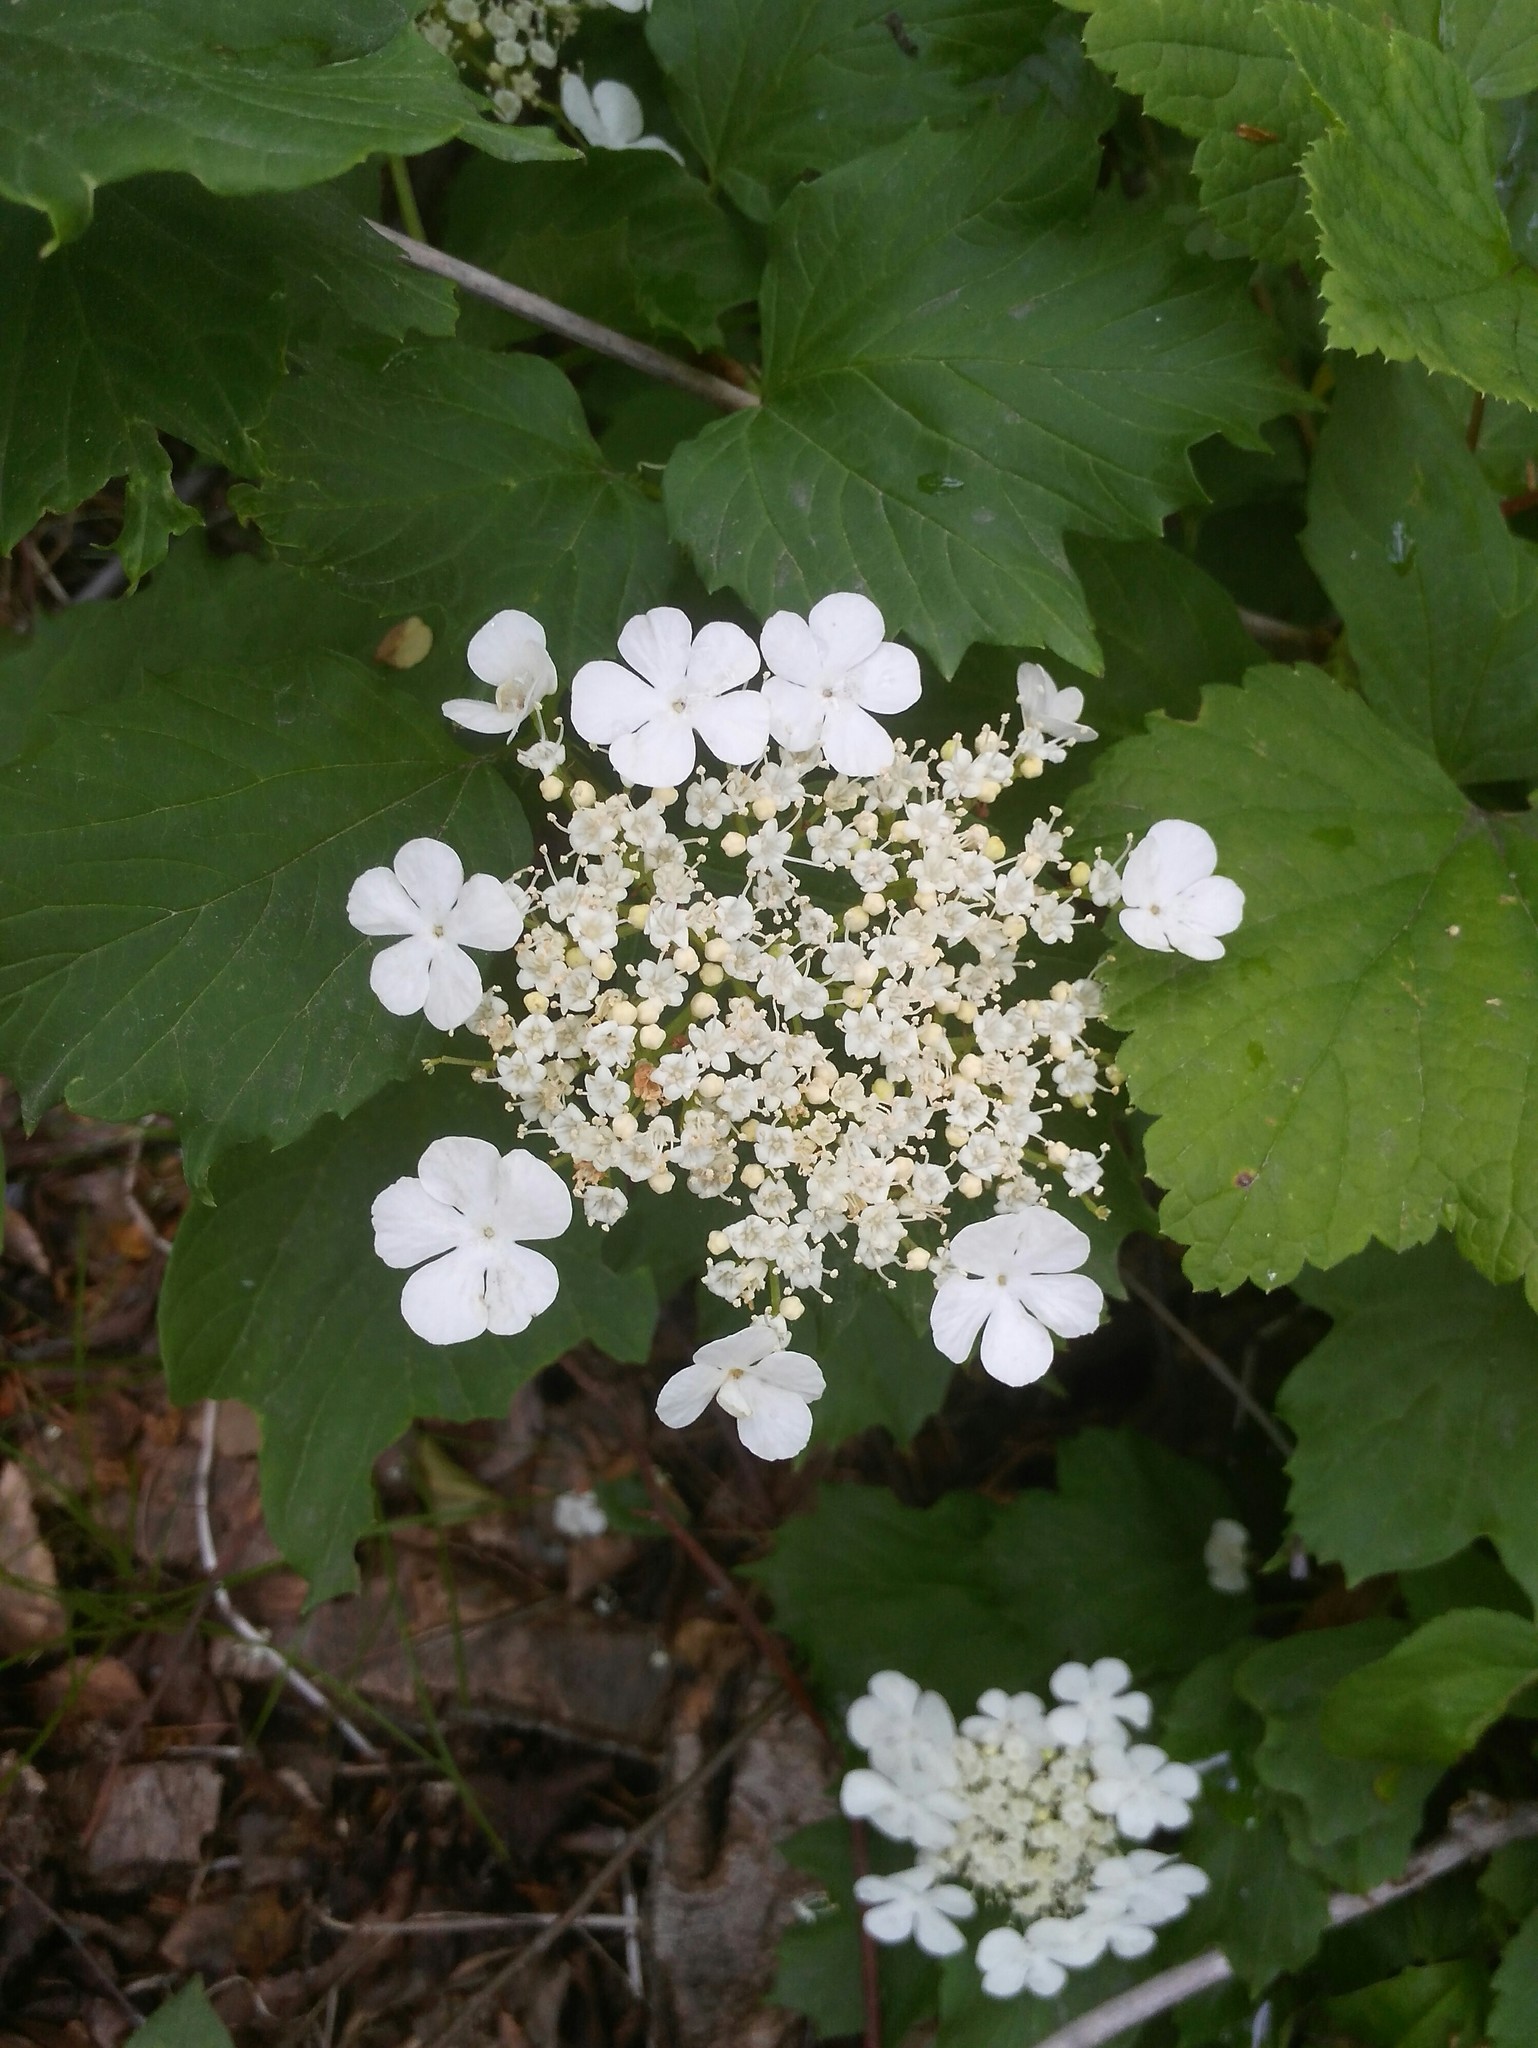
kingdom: Plantae
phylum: Tracheophyta
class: Magnoliopsida
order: Dipsacales
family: Viburnaceae
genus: Viburnum
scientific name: Viburnum opulus
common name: Guelder-rose
